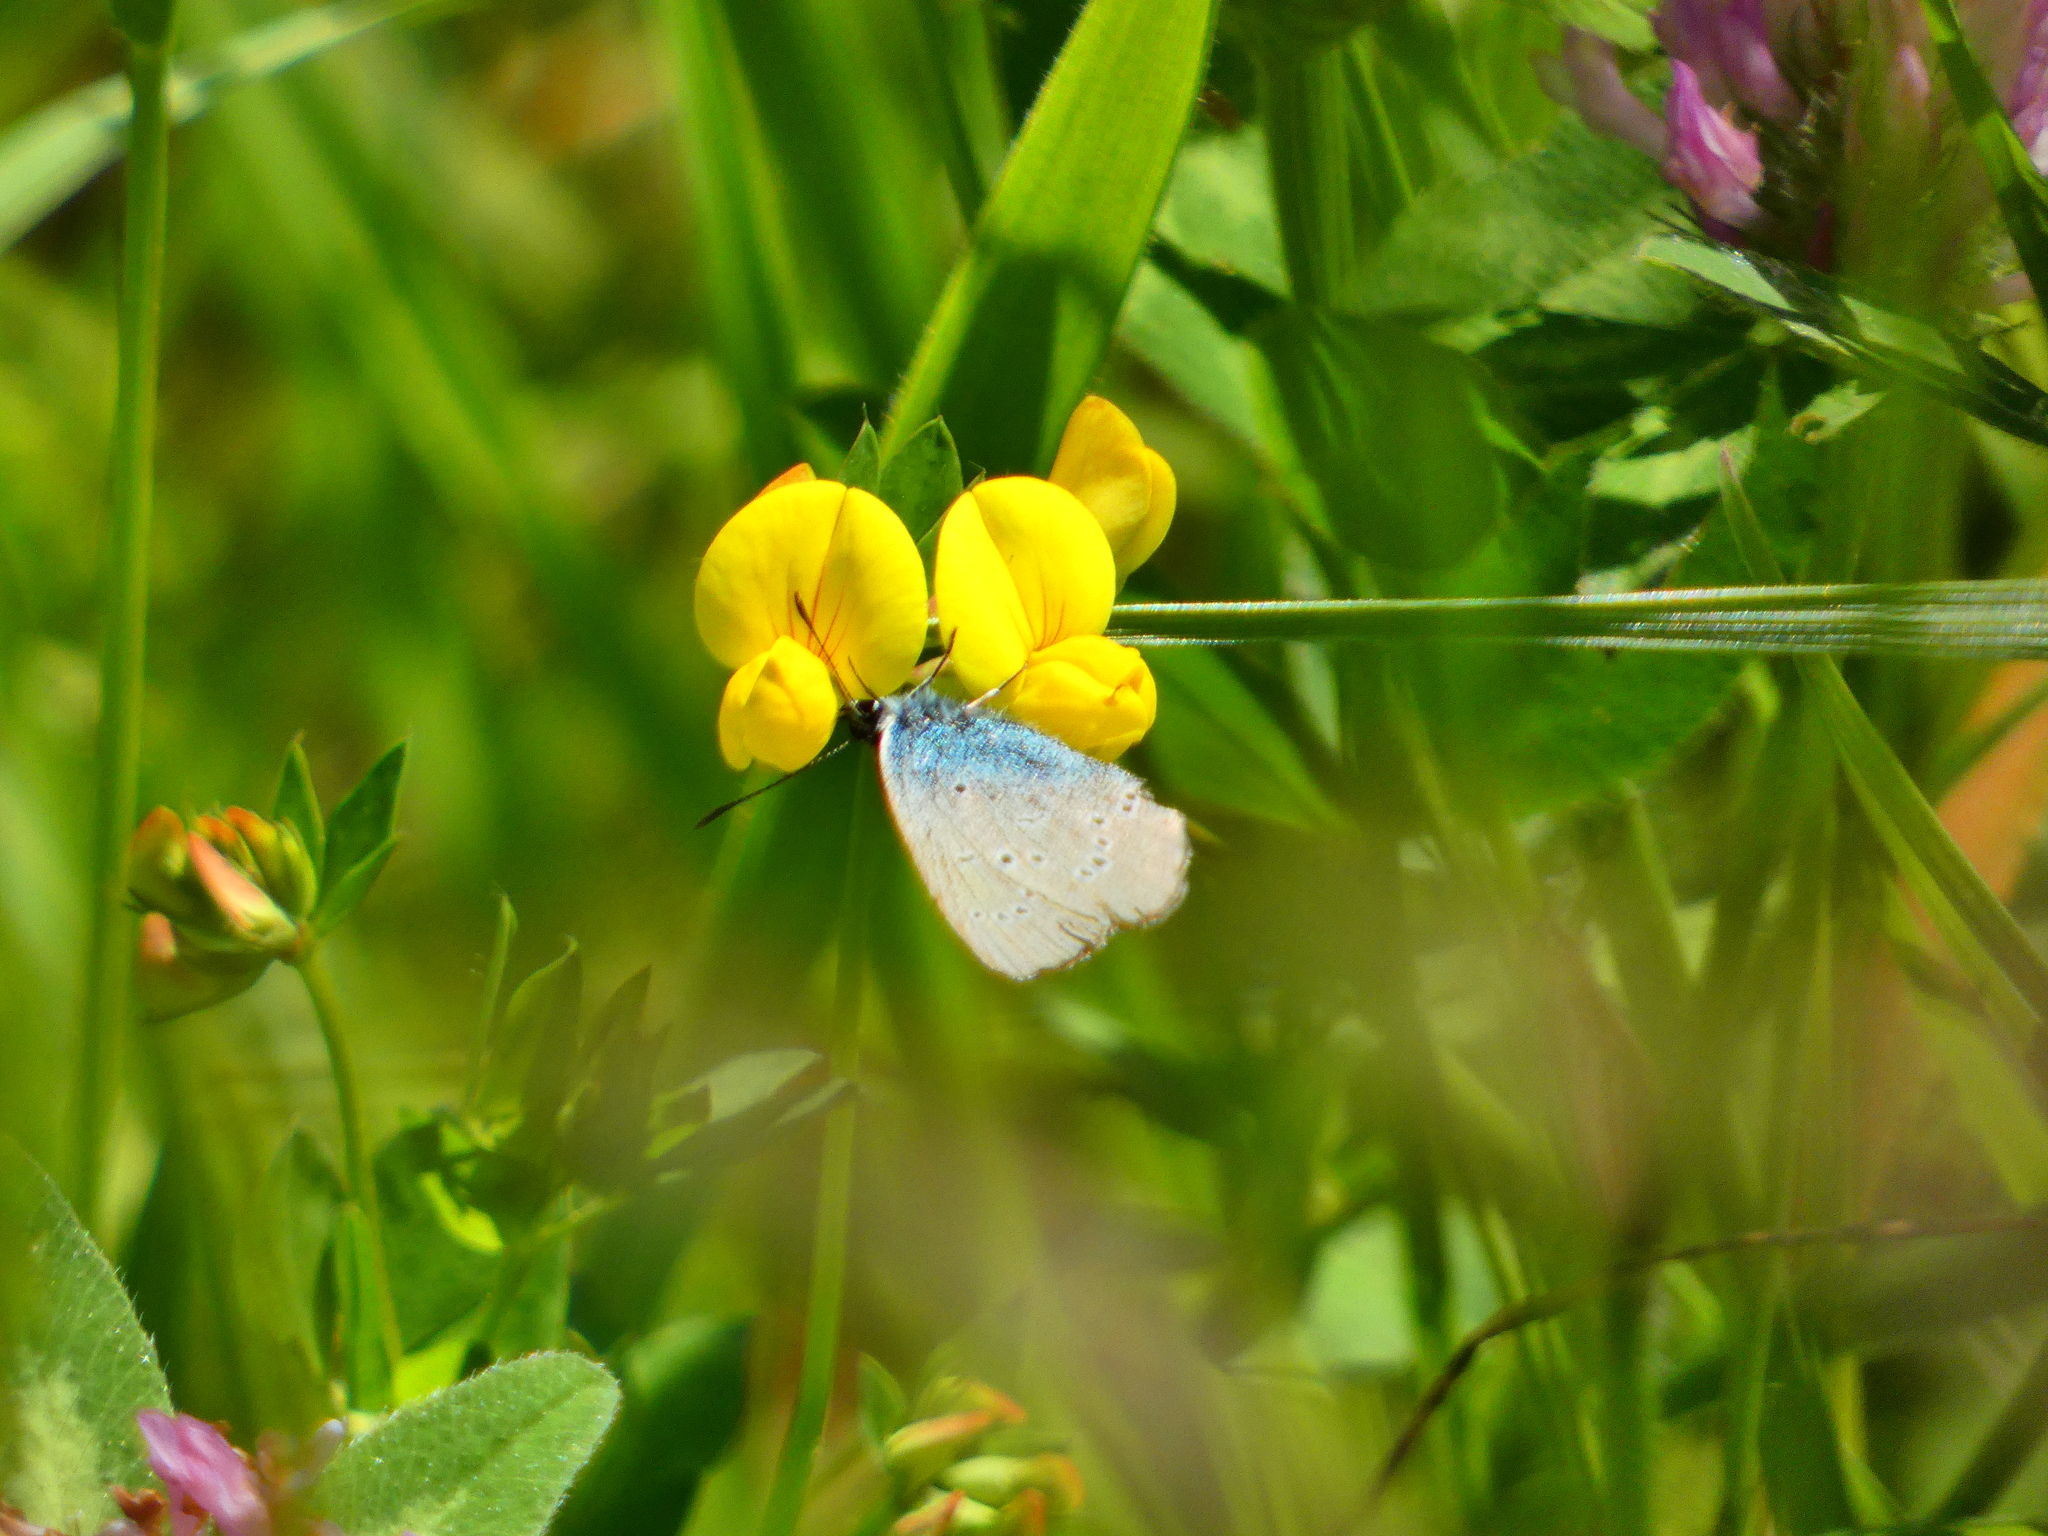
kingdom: Animalia
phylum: Arthropoda
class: Insecta
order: Lepidoptera
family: Lycaenidae
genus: Cyaniris
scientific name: Cyaniris semiargus
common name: Mazarine blue
